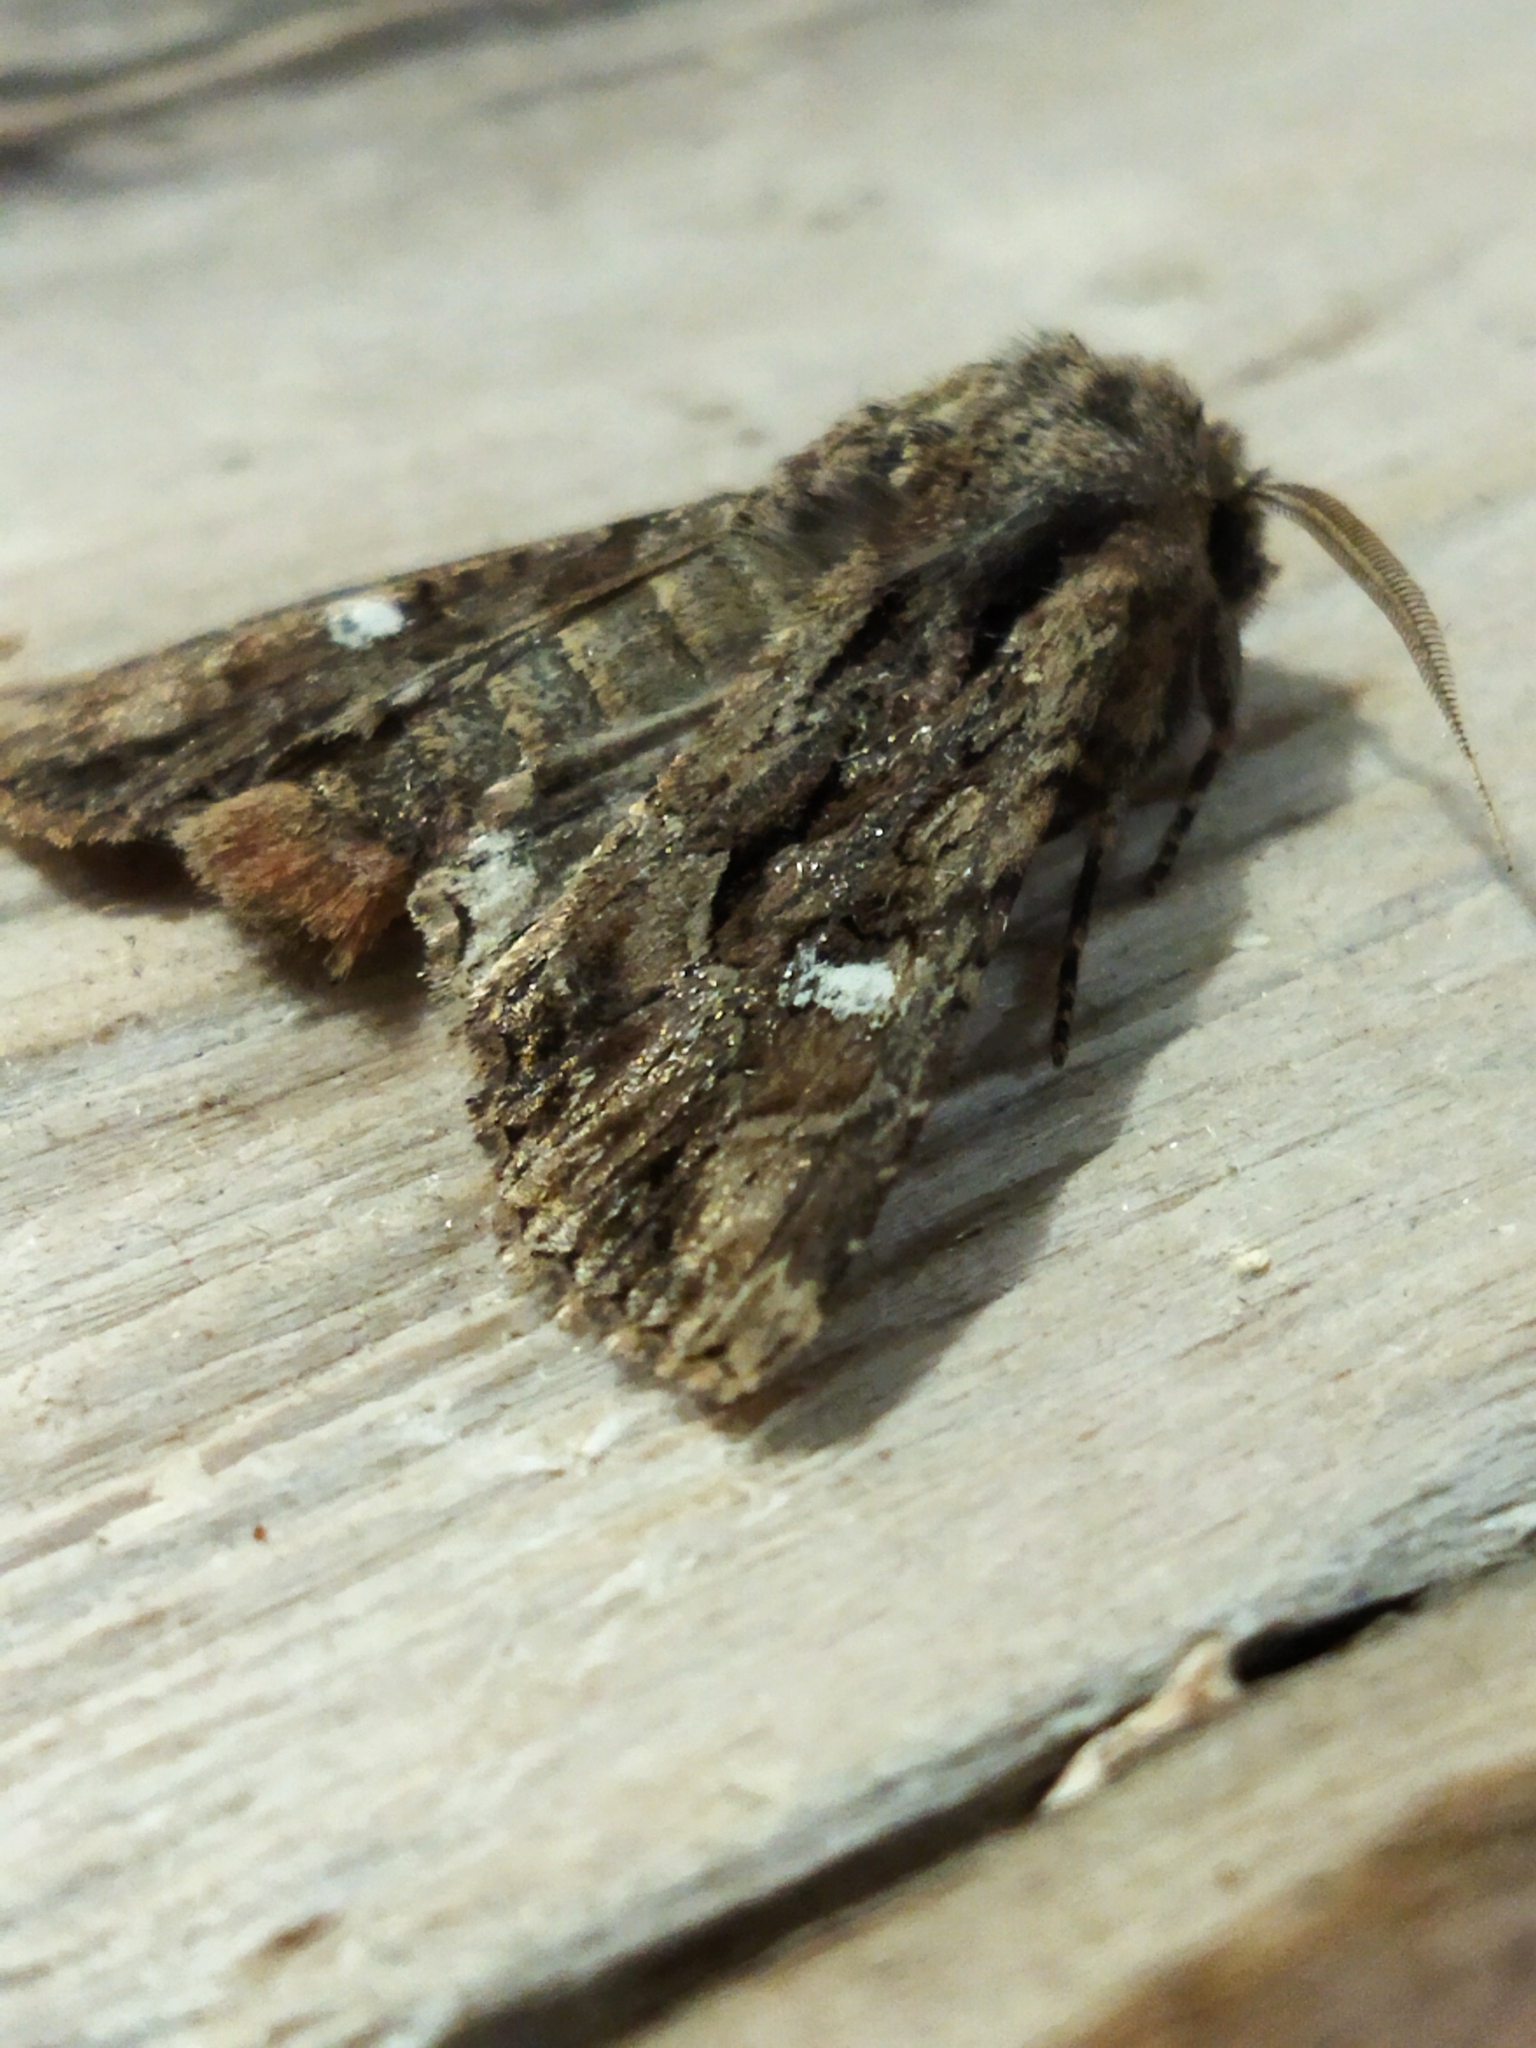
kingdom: Animalia
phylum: Arthropoda
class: Insecta
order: Lepidoptera
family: Noctuidae
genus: Polymixis
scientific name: Polymixis trisignata
